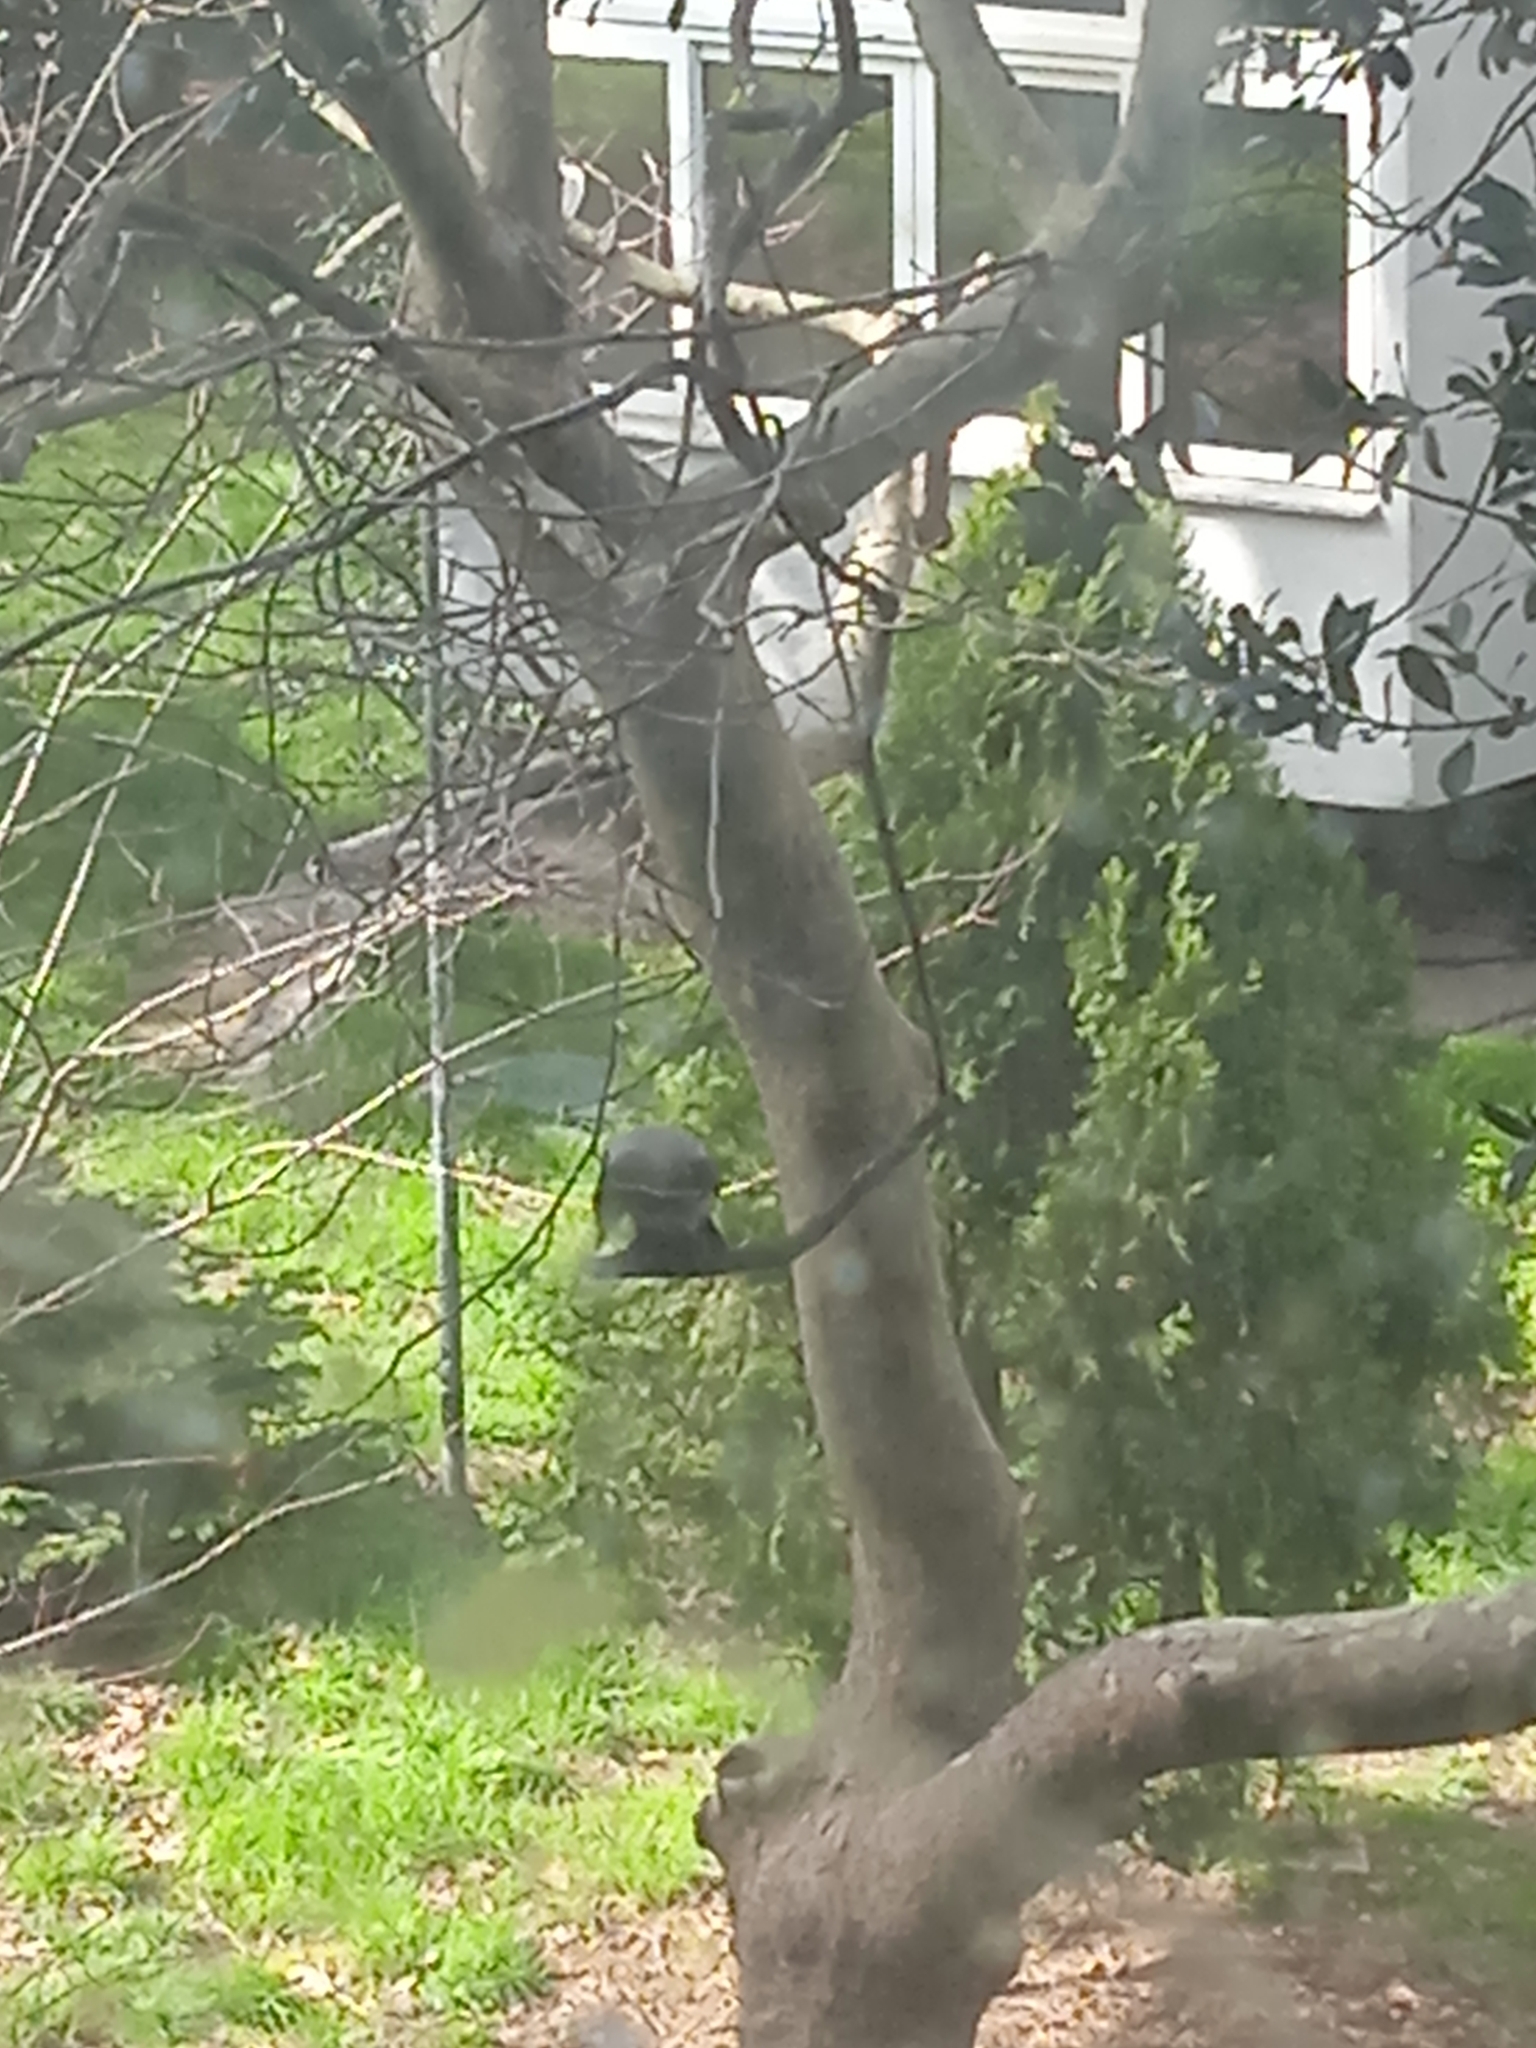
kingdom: Animalia
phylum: Chordata
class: Aves
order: Passeriformes
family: Corvidae
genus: Corvus
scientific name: Corvus cornix
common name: Hooded crow
